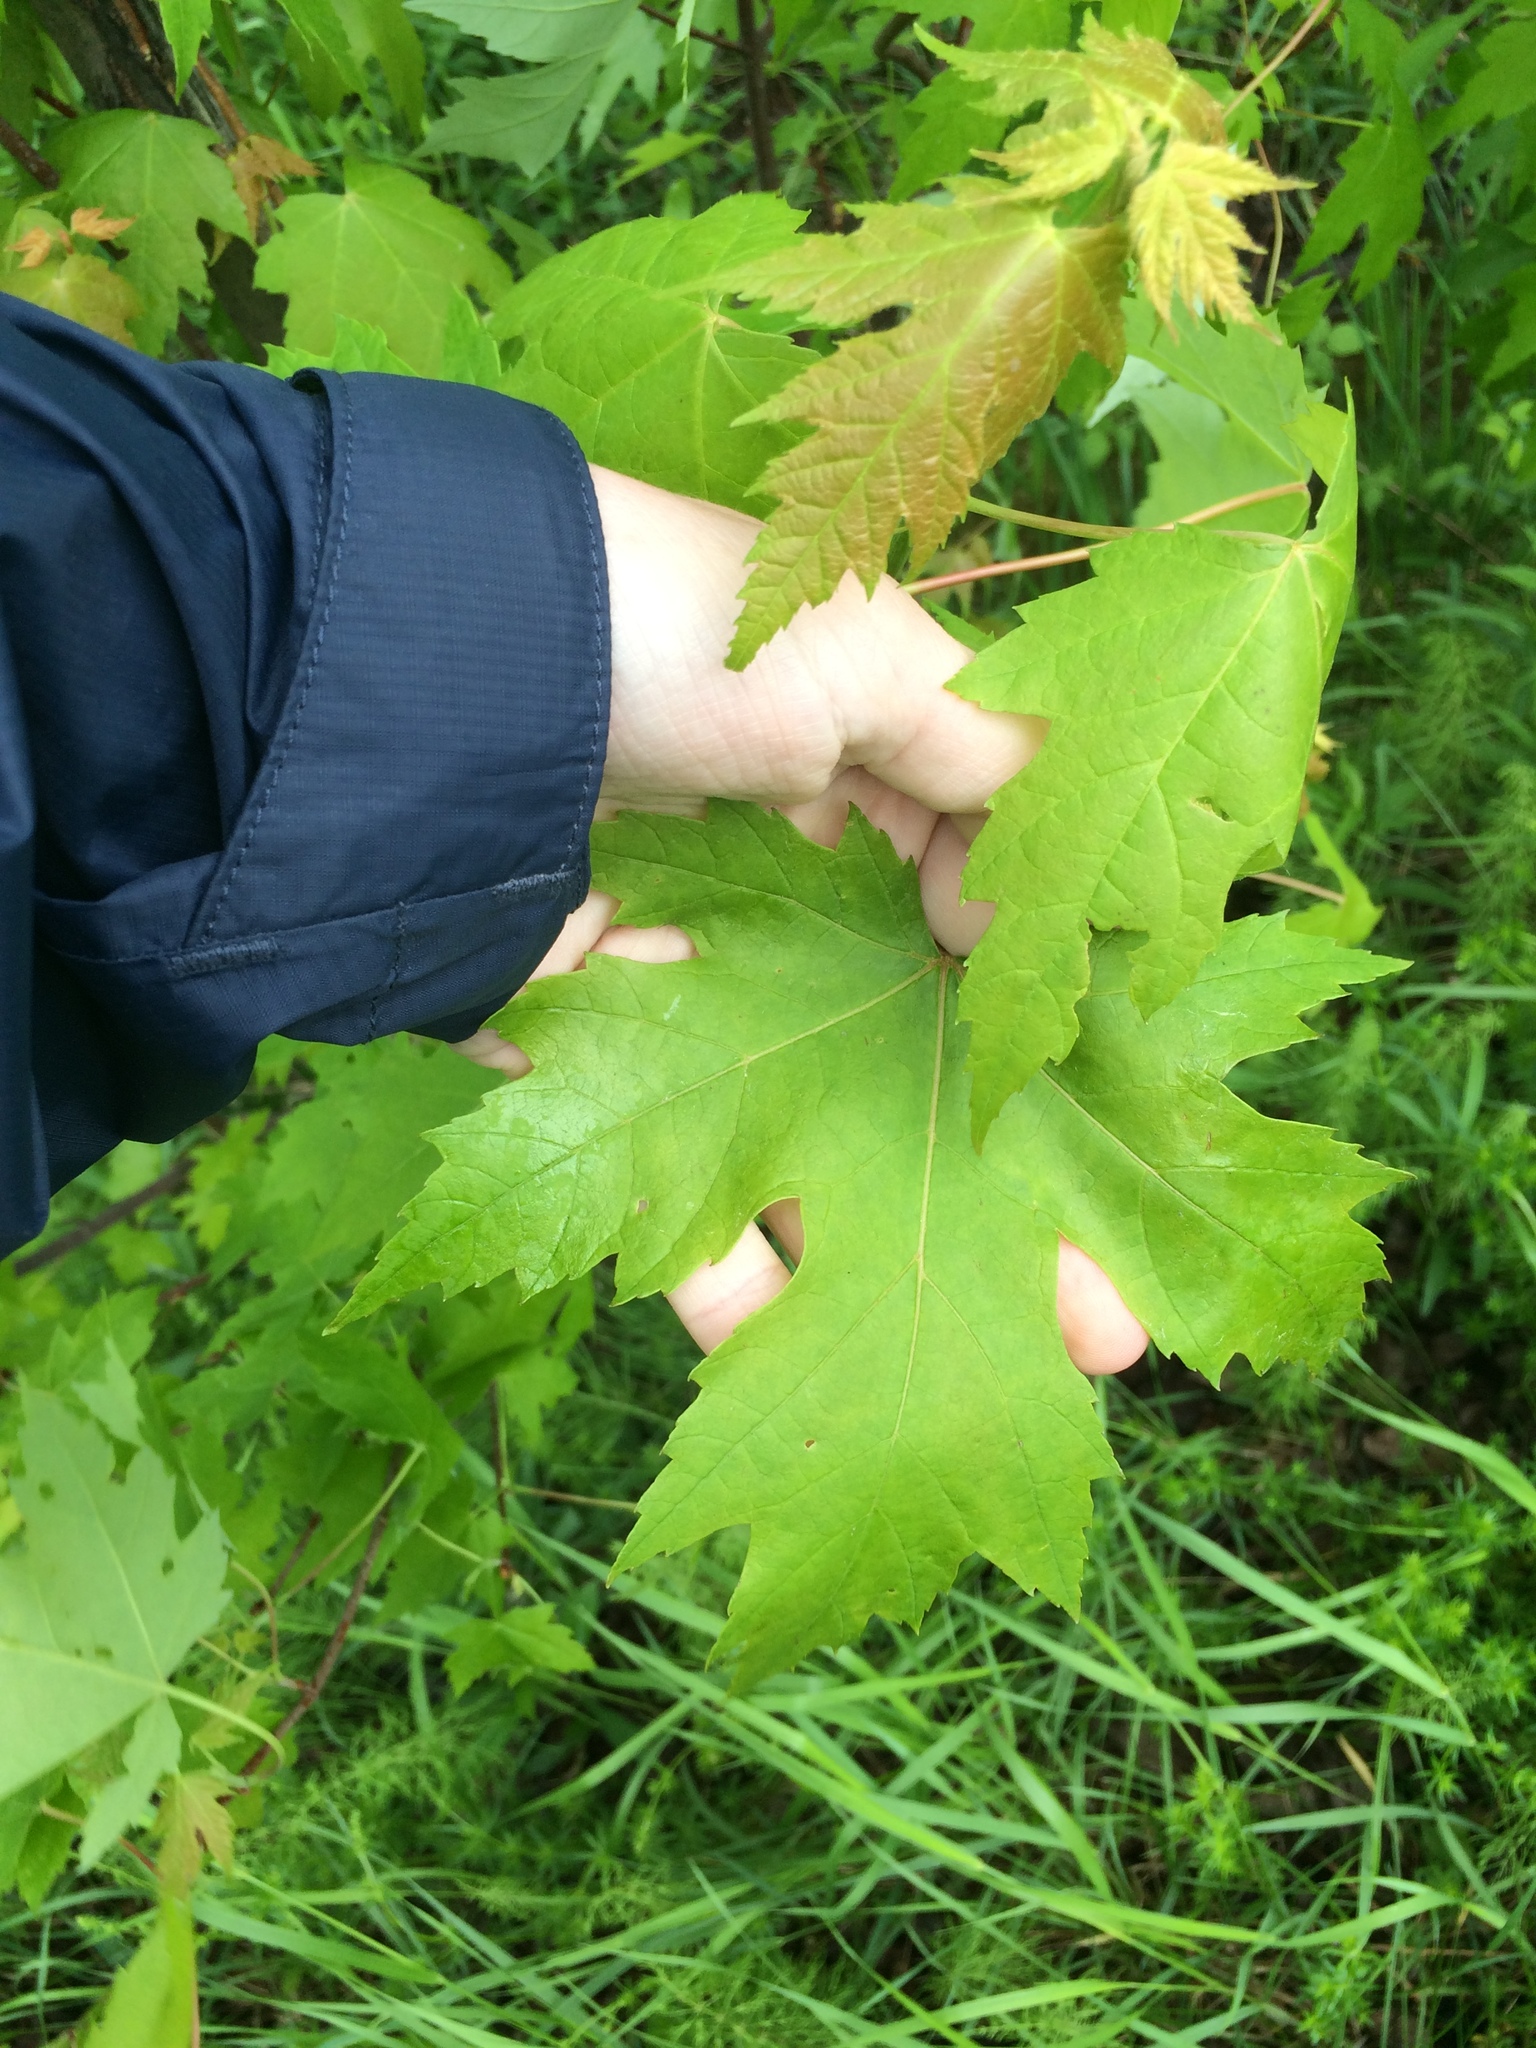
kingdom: Plantae
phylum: Tracheophyta
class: Magnoliopsida
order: Sapindales
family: Sapindaceae
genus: Acer
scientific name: Acer saccharinum
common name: Silver maple
